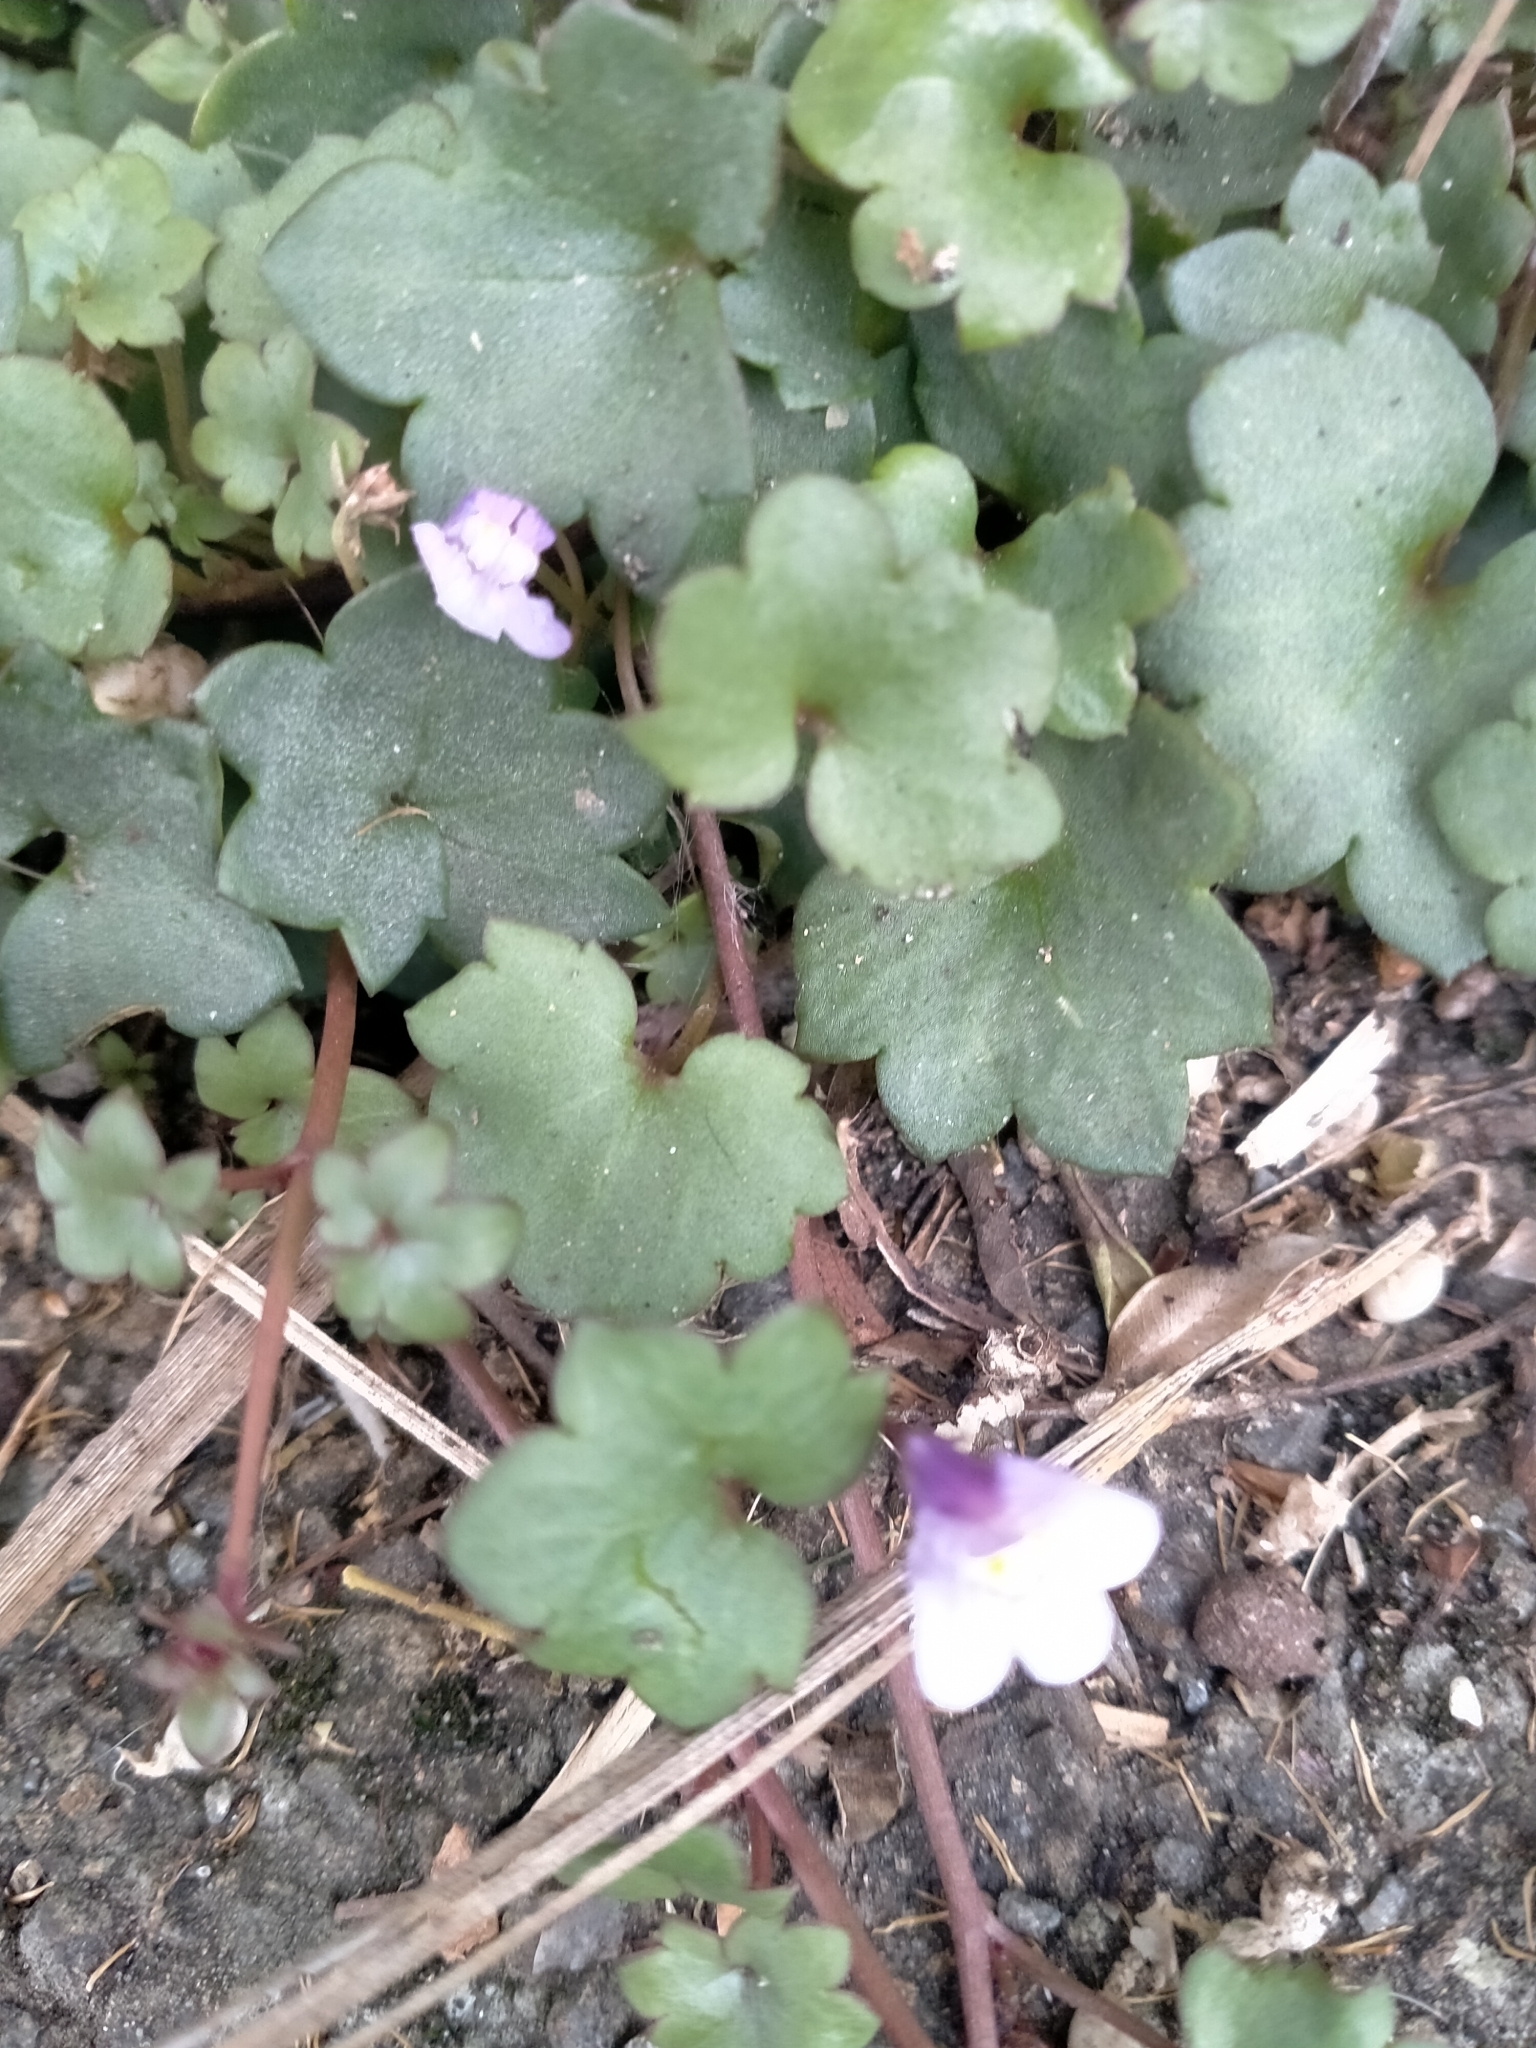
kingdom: Plantae
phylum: Tracheophyta
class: Magnoliopsida
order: Lamiales
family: Plantaginaceae
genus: Cymbalaria
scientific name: Cymbalaria muralis
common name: Ivy-leaved toadflax
